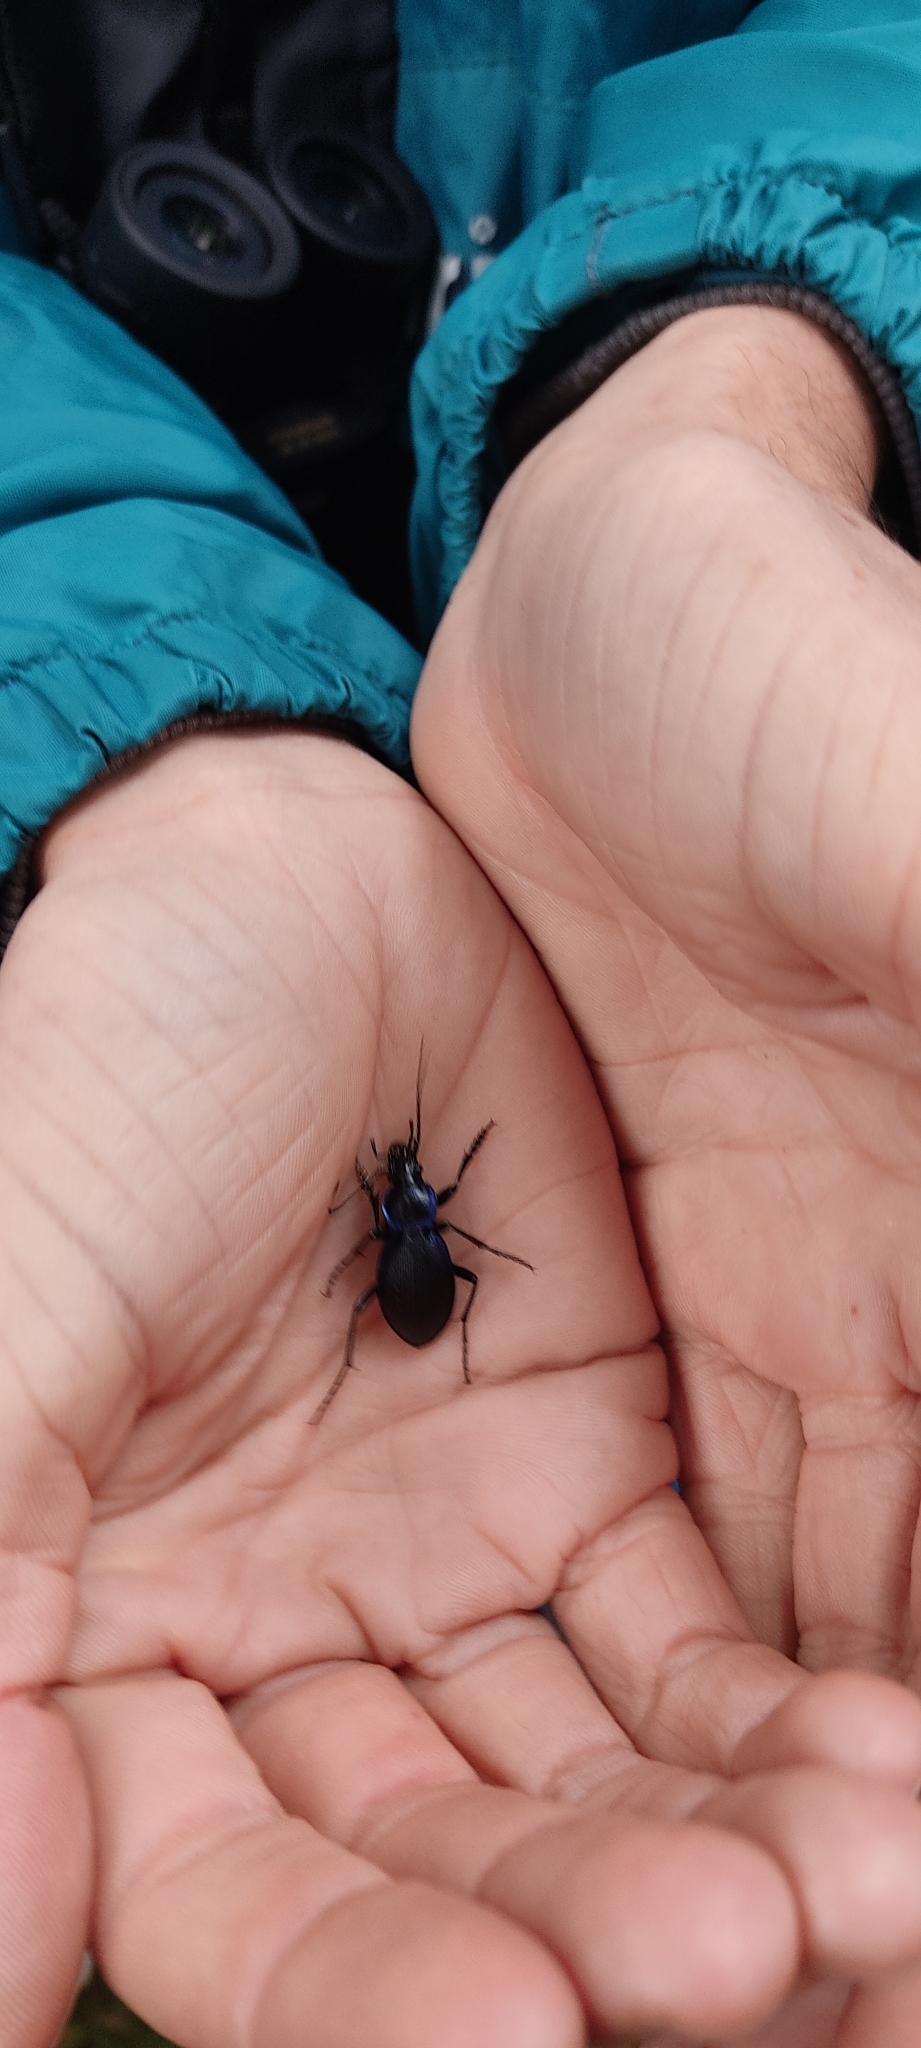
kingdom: Animalia
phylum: Arthropoda
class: Insecta
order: Coleoptera
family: Carabidae
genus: Carabus
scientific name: Carabus problematicus
